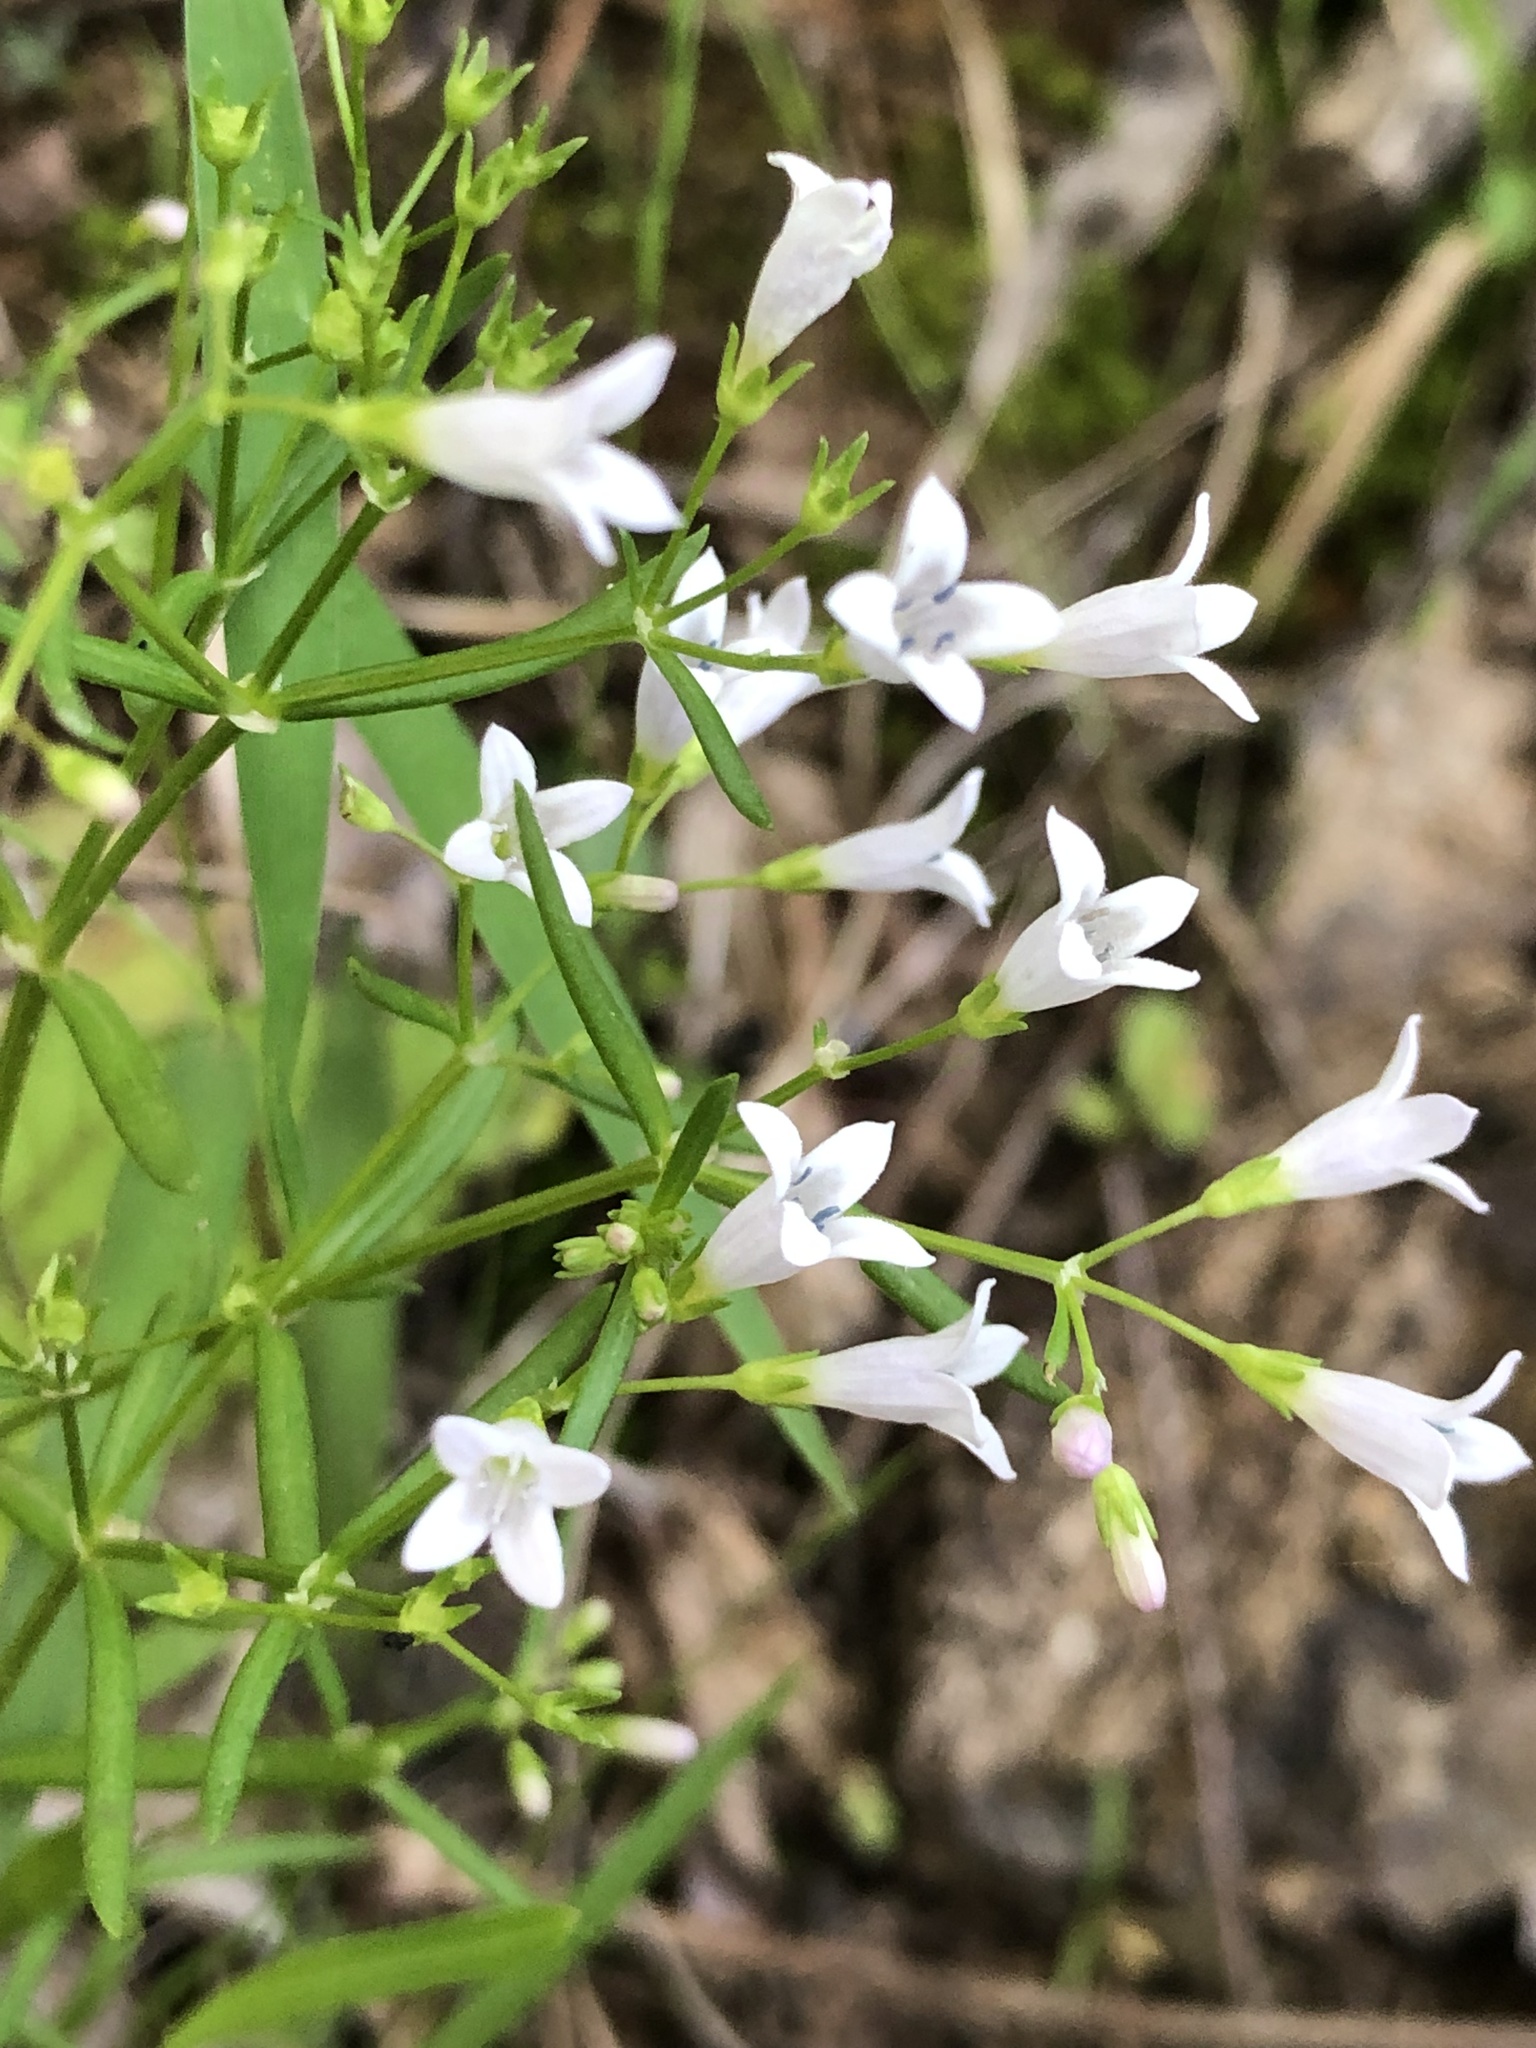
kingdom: Plantae
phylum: Tracheophyta
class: Magnoliopsida
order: Gentianales
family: Rubiaceae
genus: Houstonia
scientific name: Houstonia longifolia
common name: Long-leaved bluets
